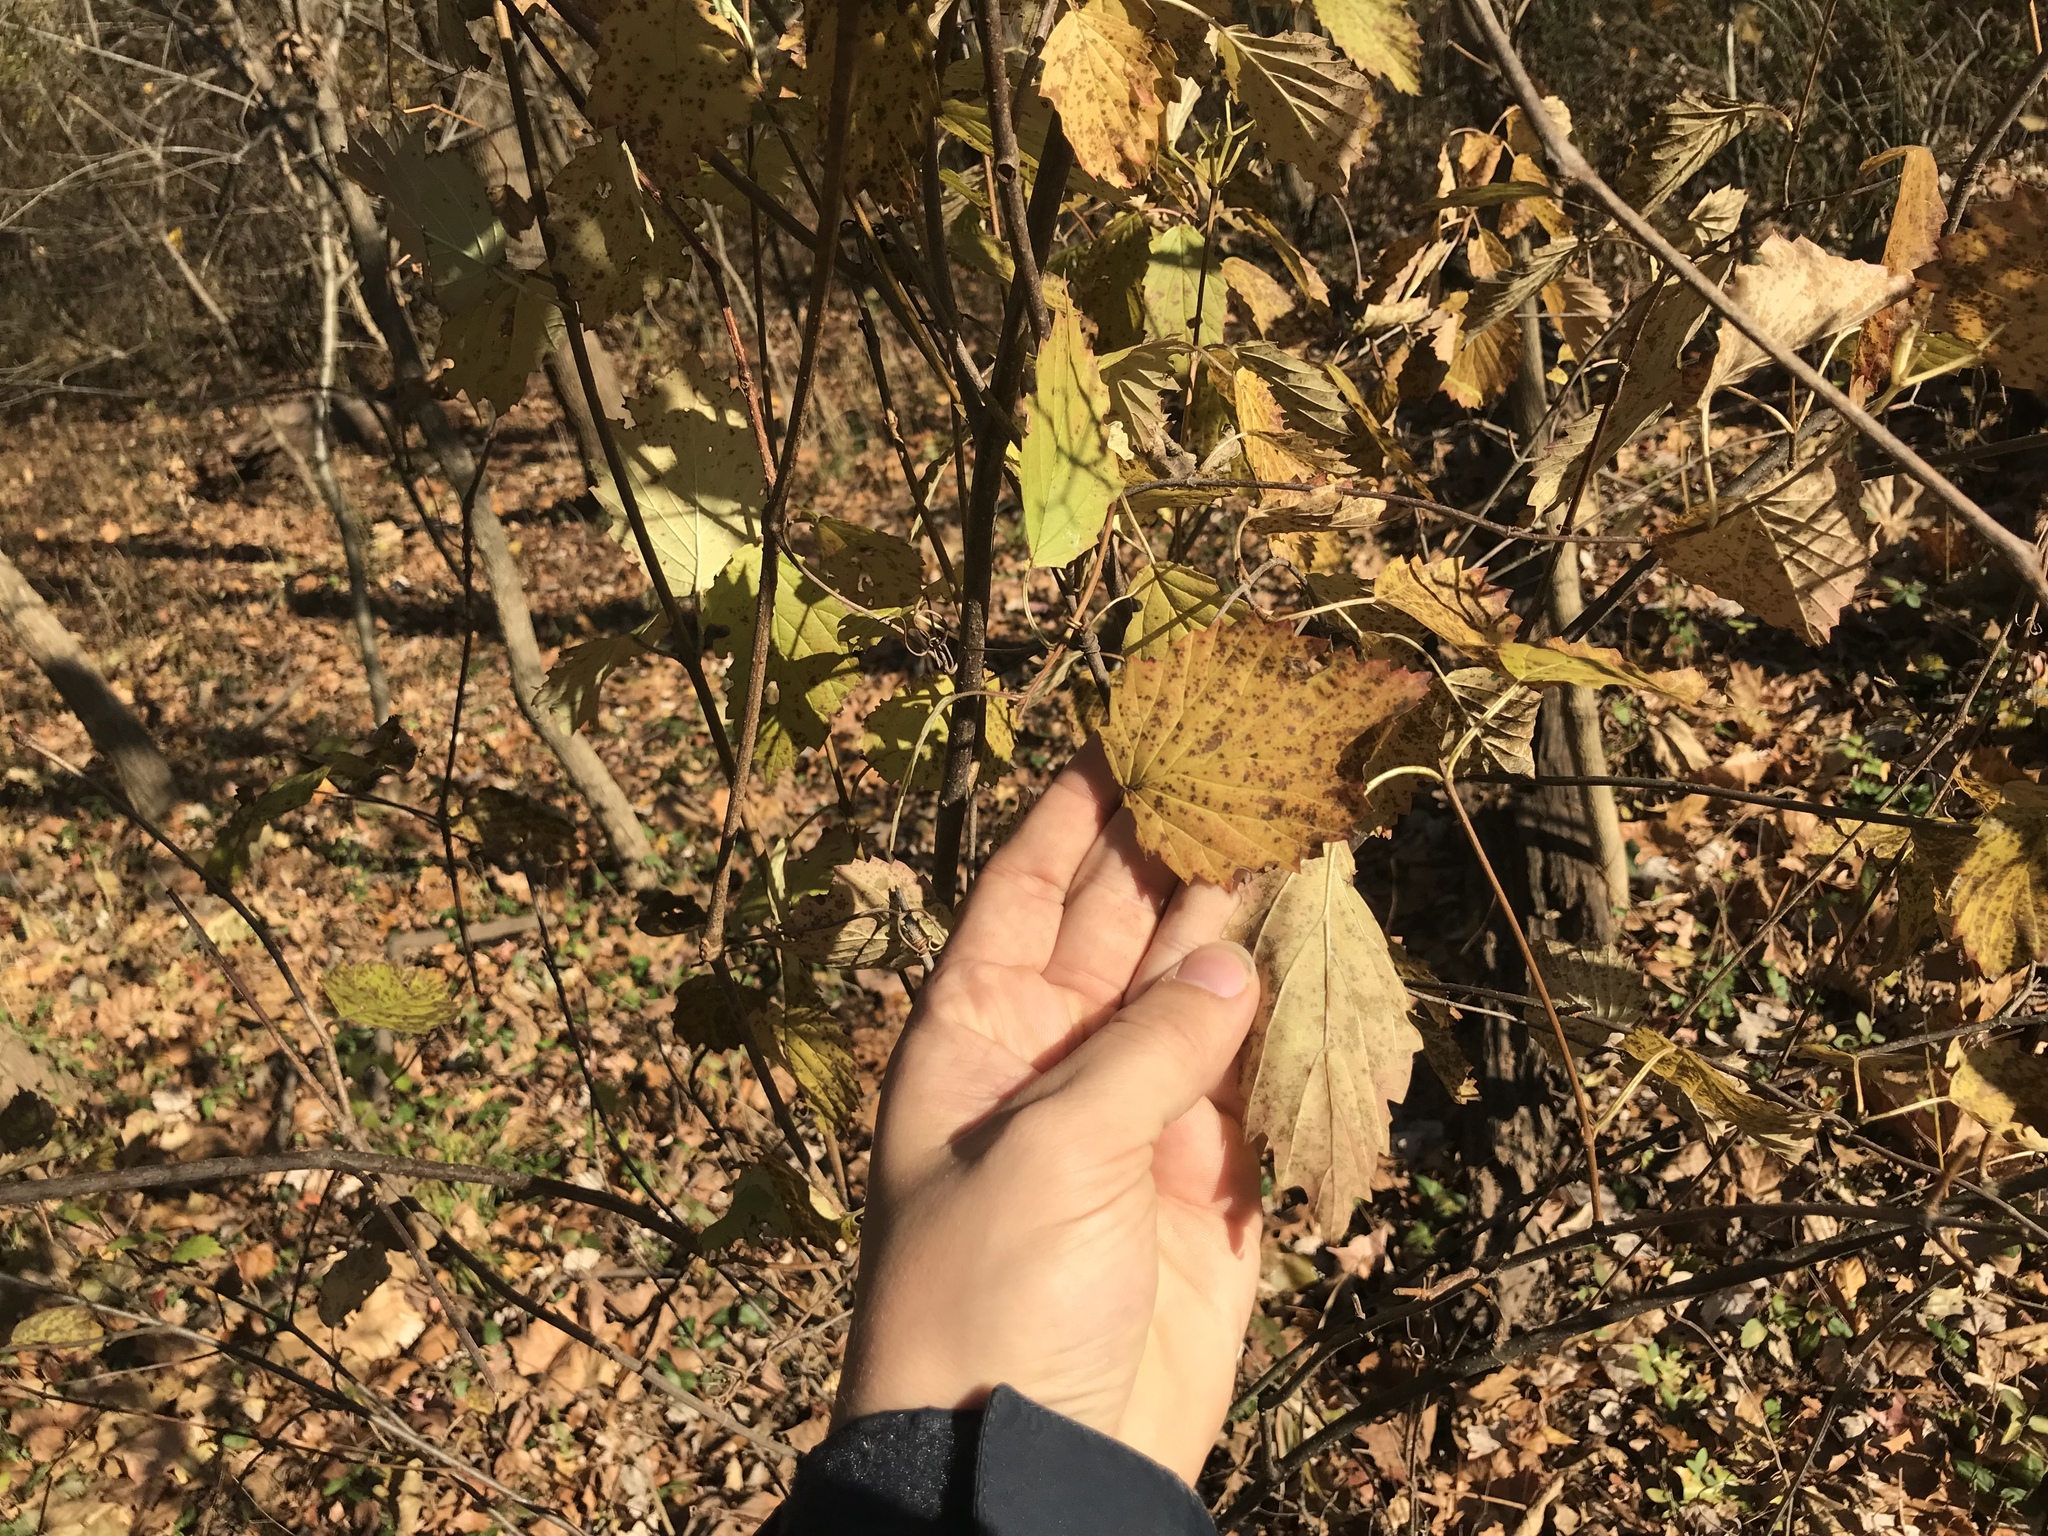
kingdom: Plantae
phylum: Tracheophyta
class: Magnoliopsida
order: Dipsacales
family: Viburnaceae
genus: Viburnum
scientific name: Viburnum dentatum
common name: Arrow-wood
